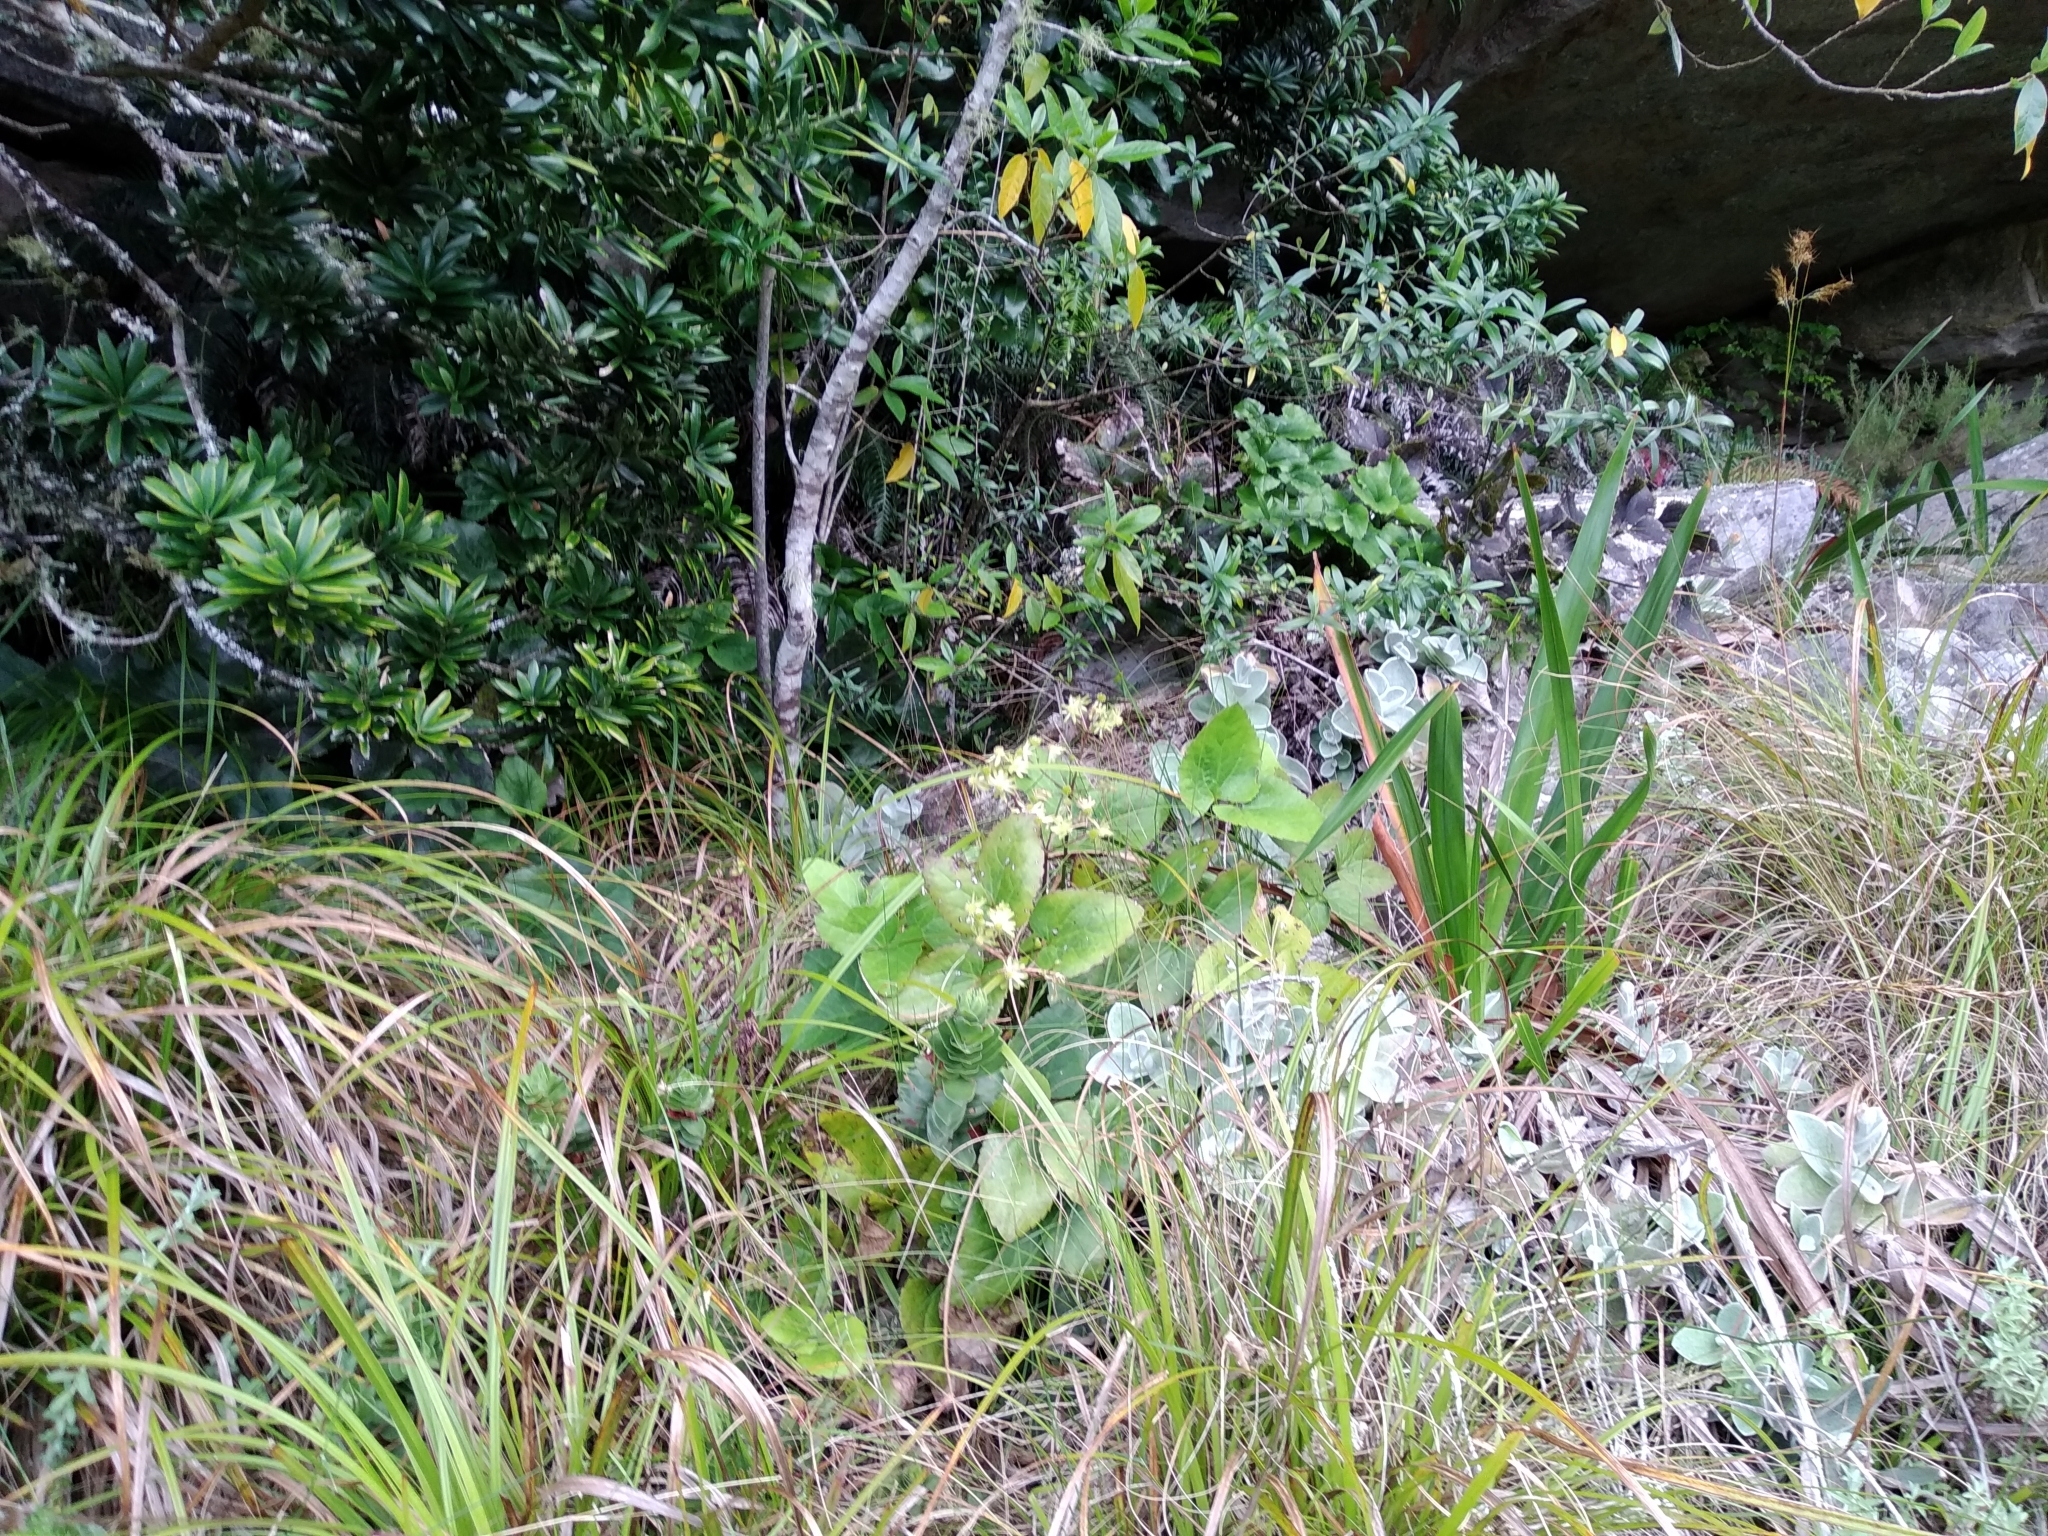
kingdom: Plantae
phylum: Tracheophyta
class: Magnoliopsida
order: Ranunculales
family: Ranunculaceae
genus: Knowltonia
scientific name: Knowltonia vesicatoria
